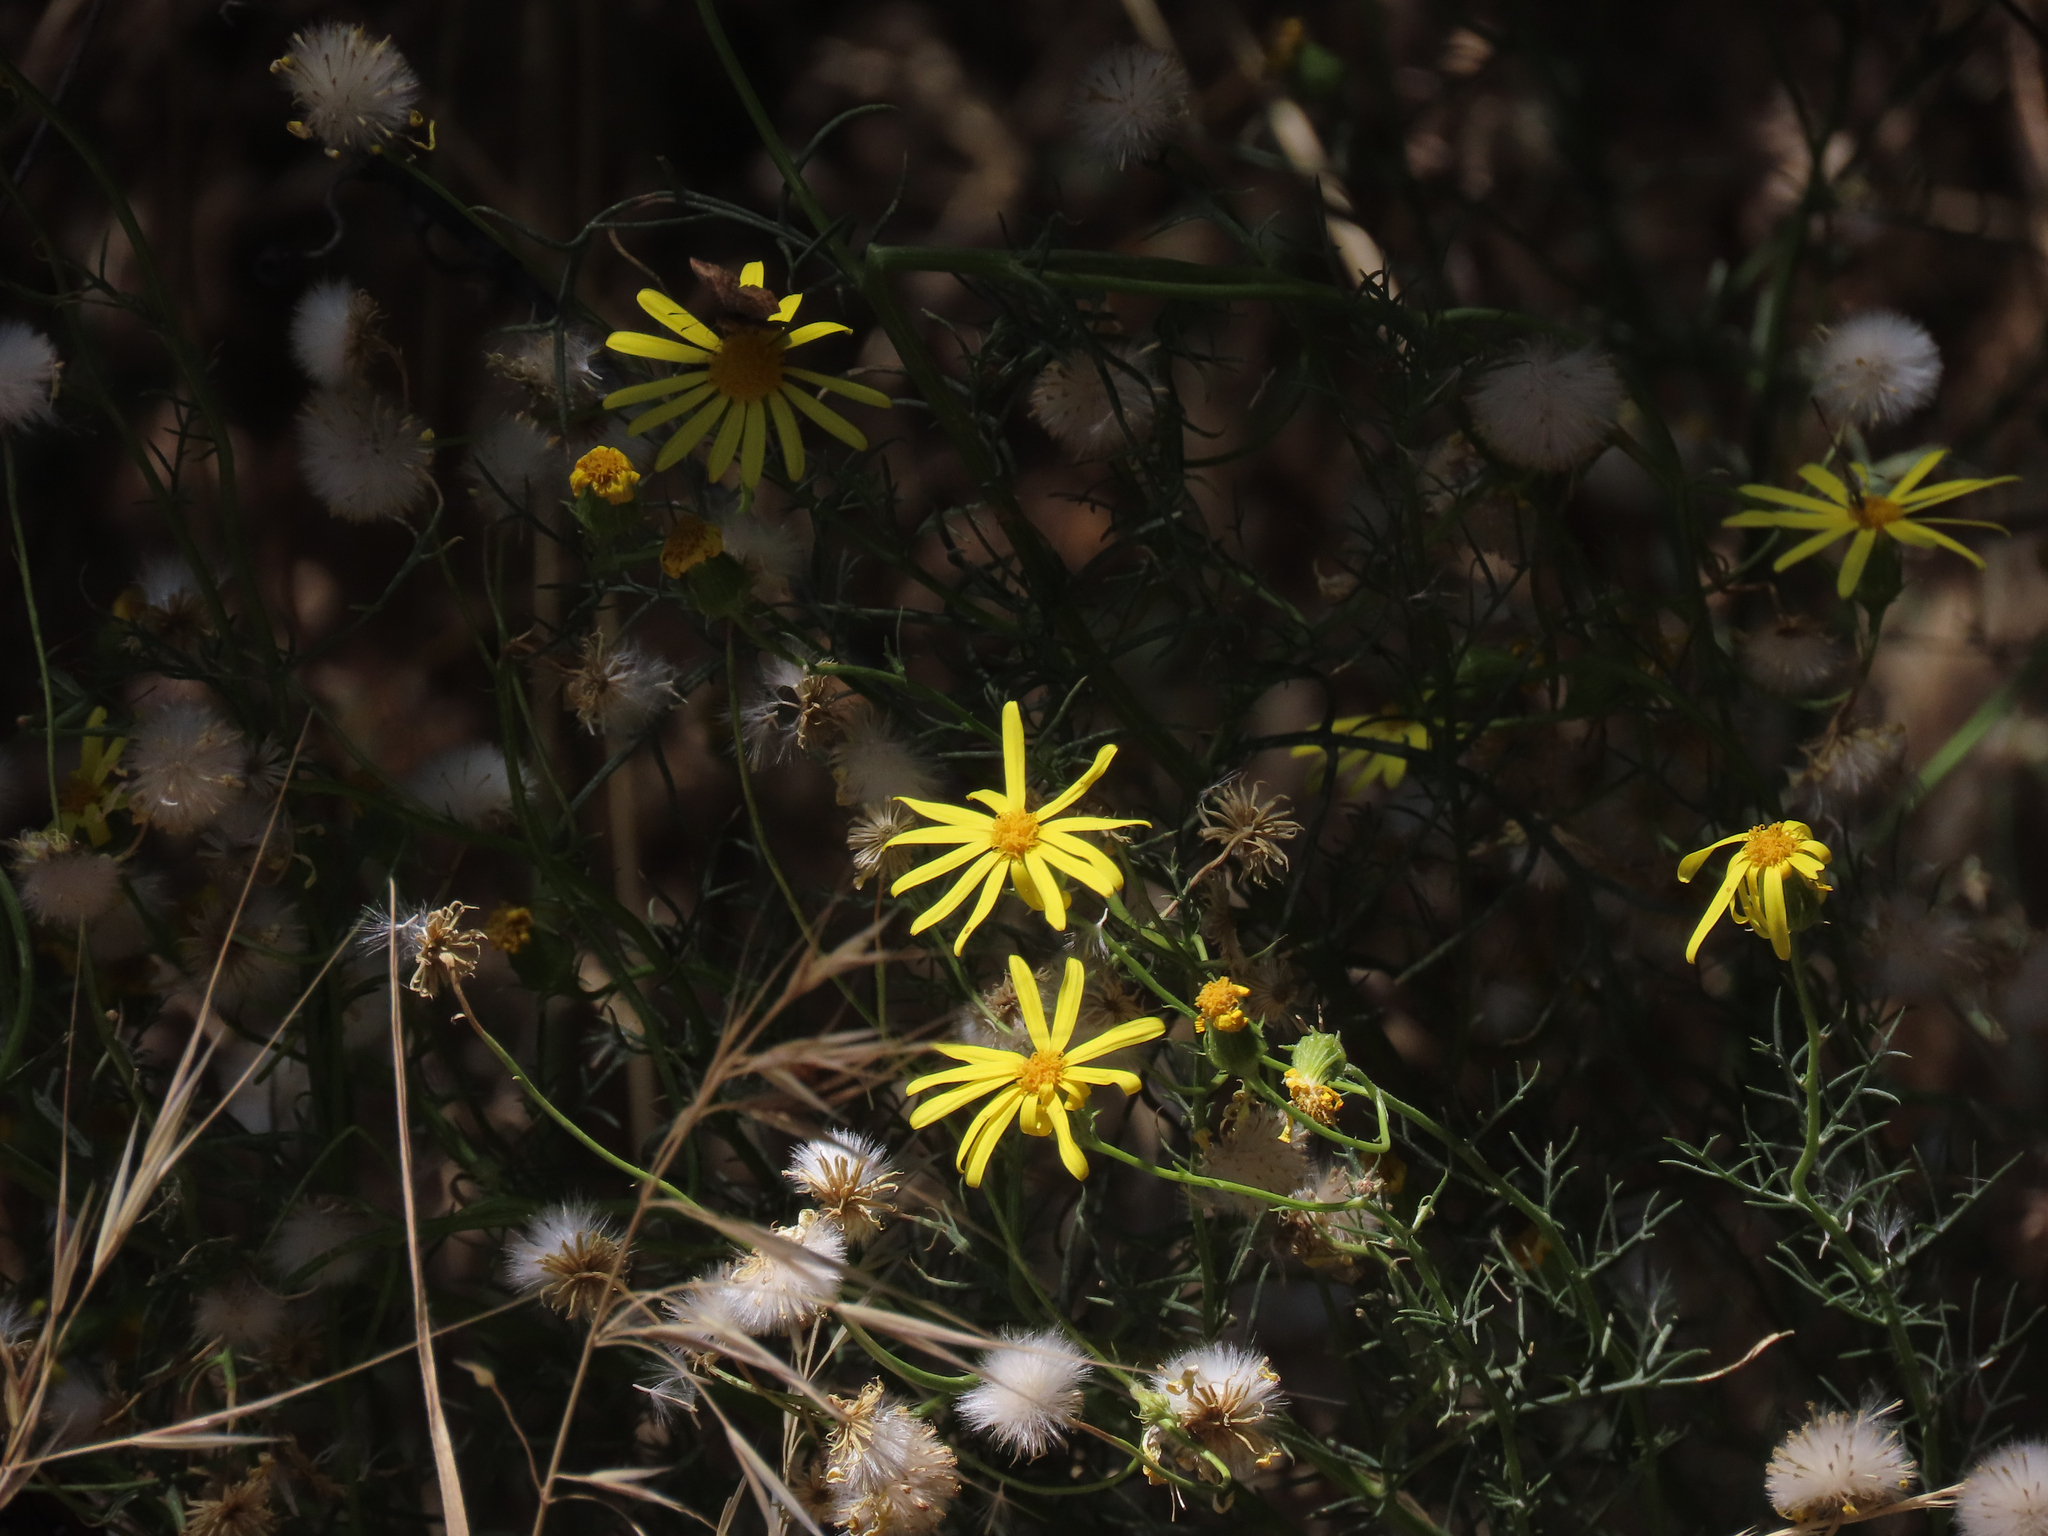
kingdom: Plantae
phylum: Tracheophyta
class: Magnoliopsida
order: Asterales
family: Asteraceae
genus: Senecio
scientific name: Senecio flaccidus
